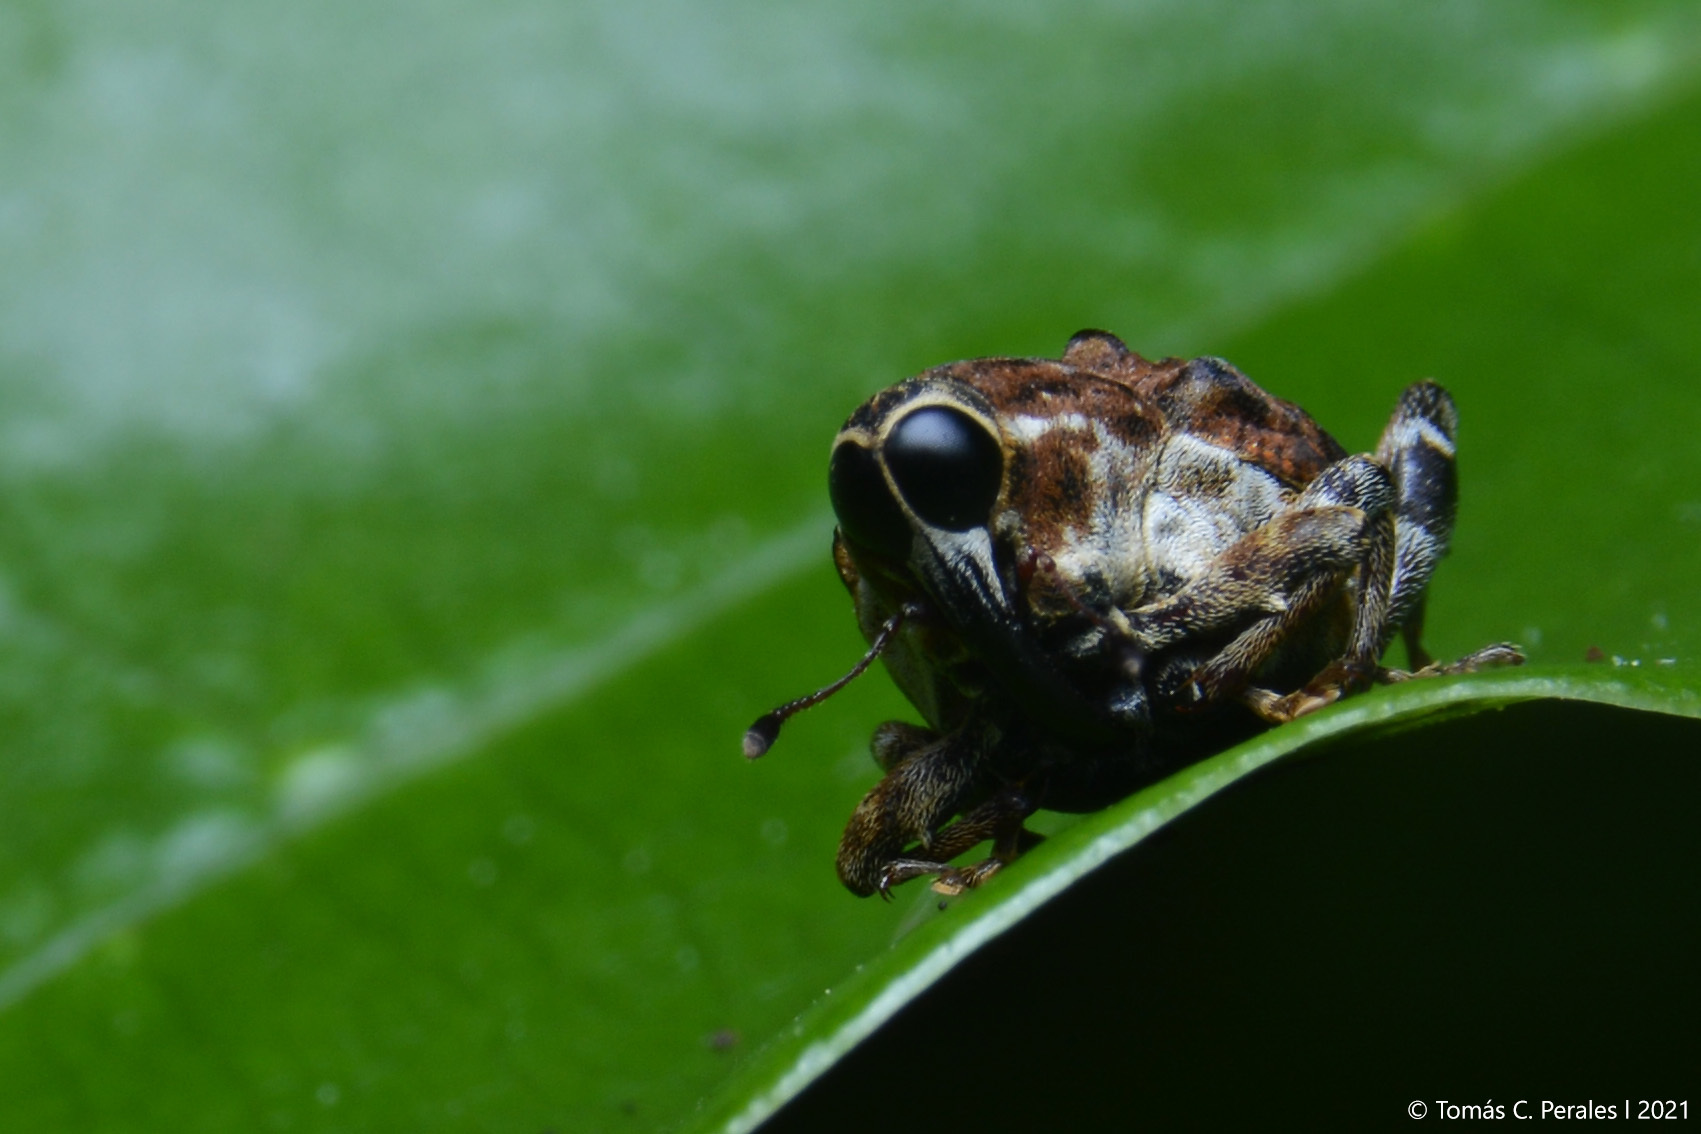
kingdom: Animalia
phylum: Arthropoda
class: Insecta
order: Coleoptera
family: Curculionidae
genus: Piazurus
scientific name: Piazurus ciliatus
